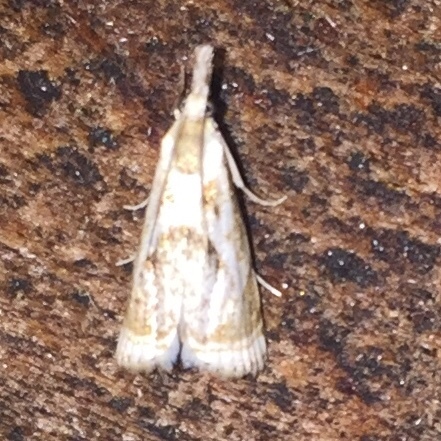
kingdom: Animalia
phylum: Arthropoda
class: Insecta
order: Lepidoptera
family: Crambidae
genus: Microcrambus
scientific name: Microcrambus elegans
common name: Elegant grass-veneer
